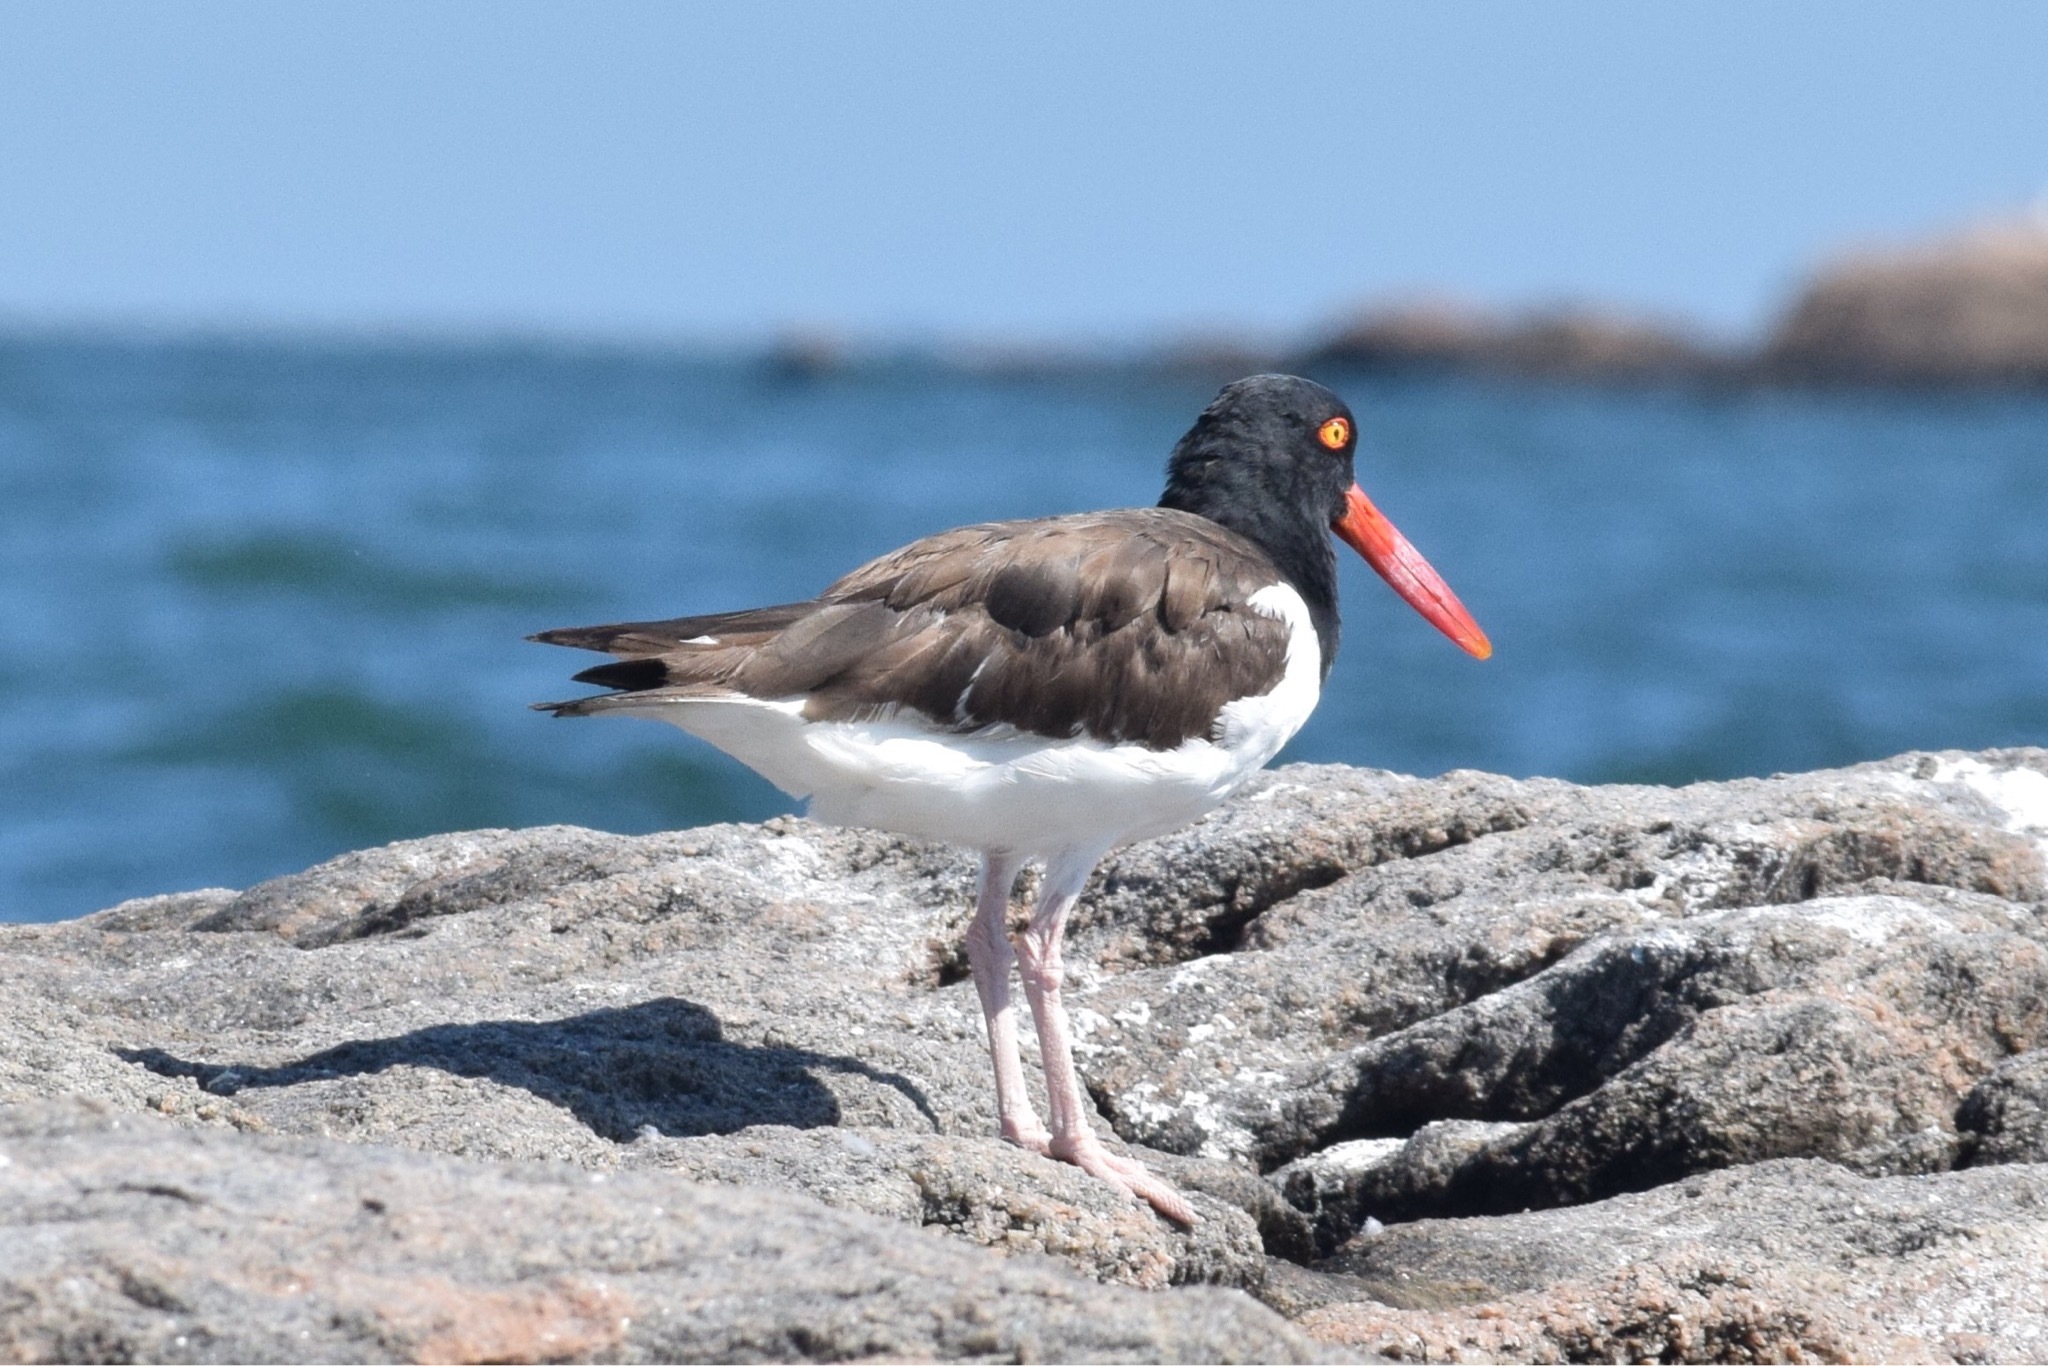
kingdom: Animalia
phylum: Chordata
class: Aves
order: Charadriiformes
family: Haematopodidae
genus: Haematopus
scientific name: Haematopus palliatus
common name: American oystercatcher
